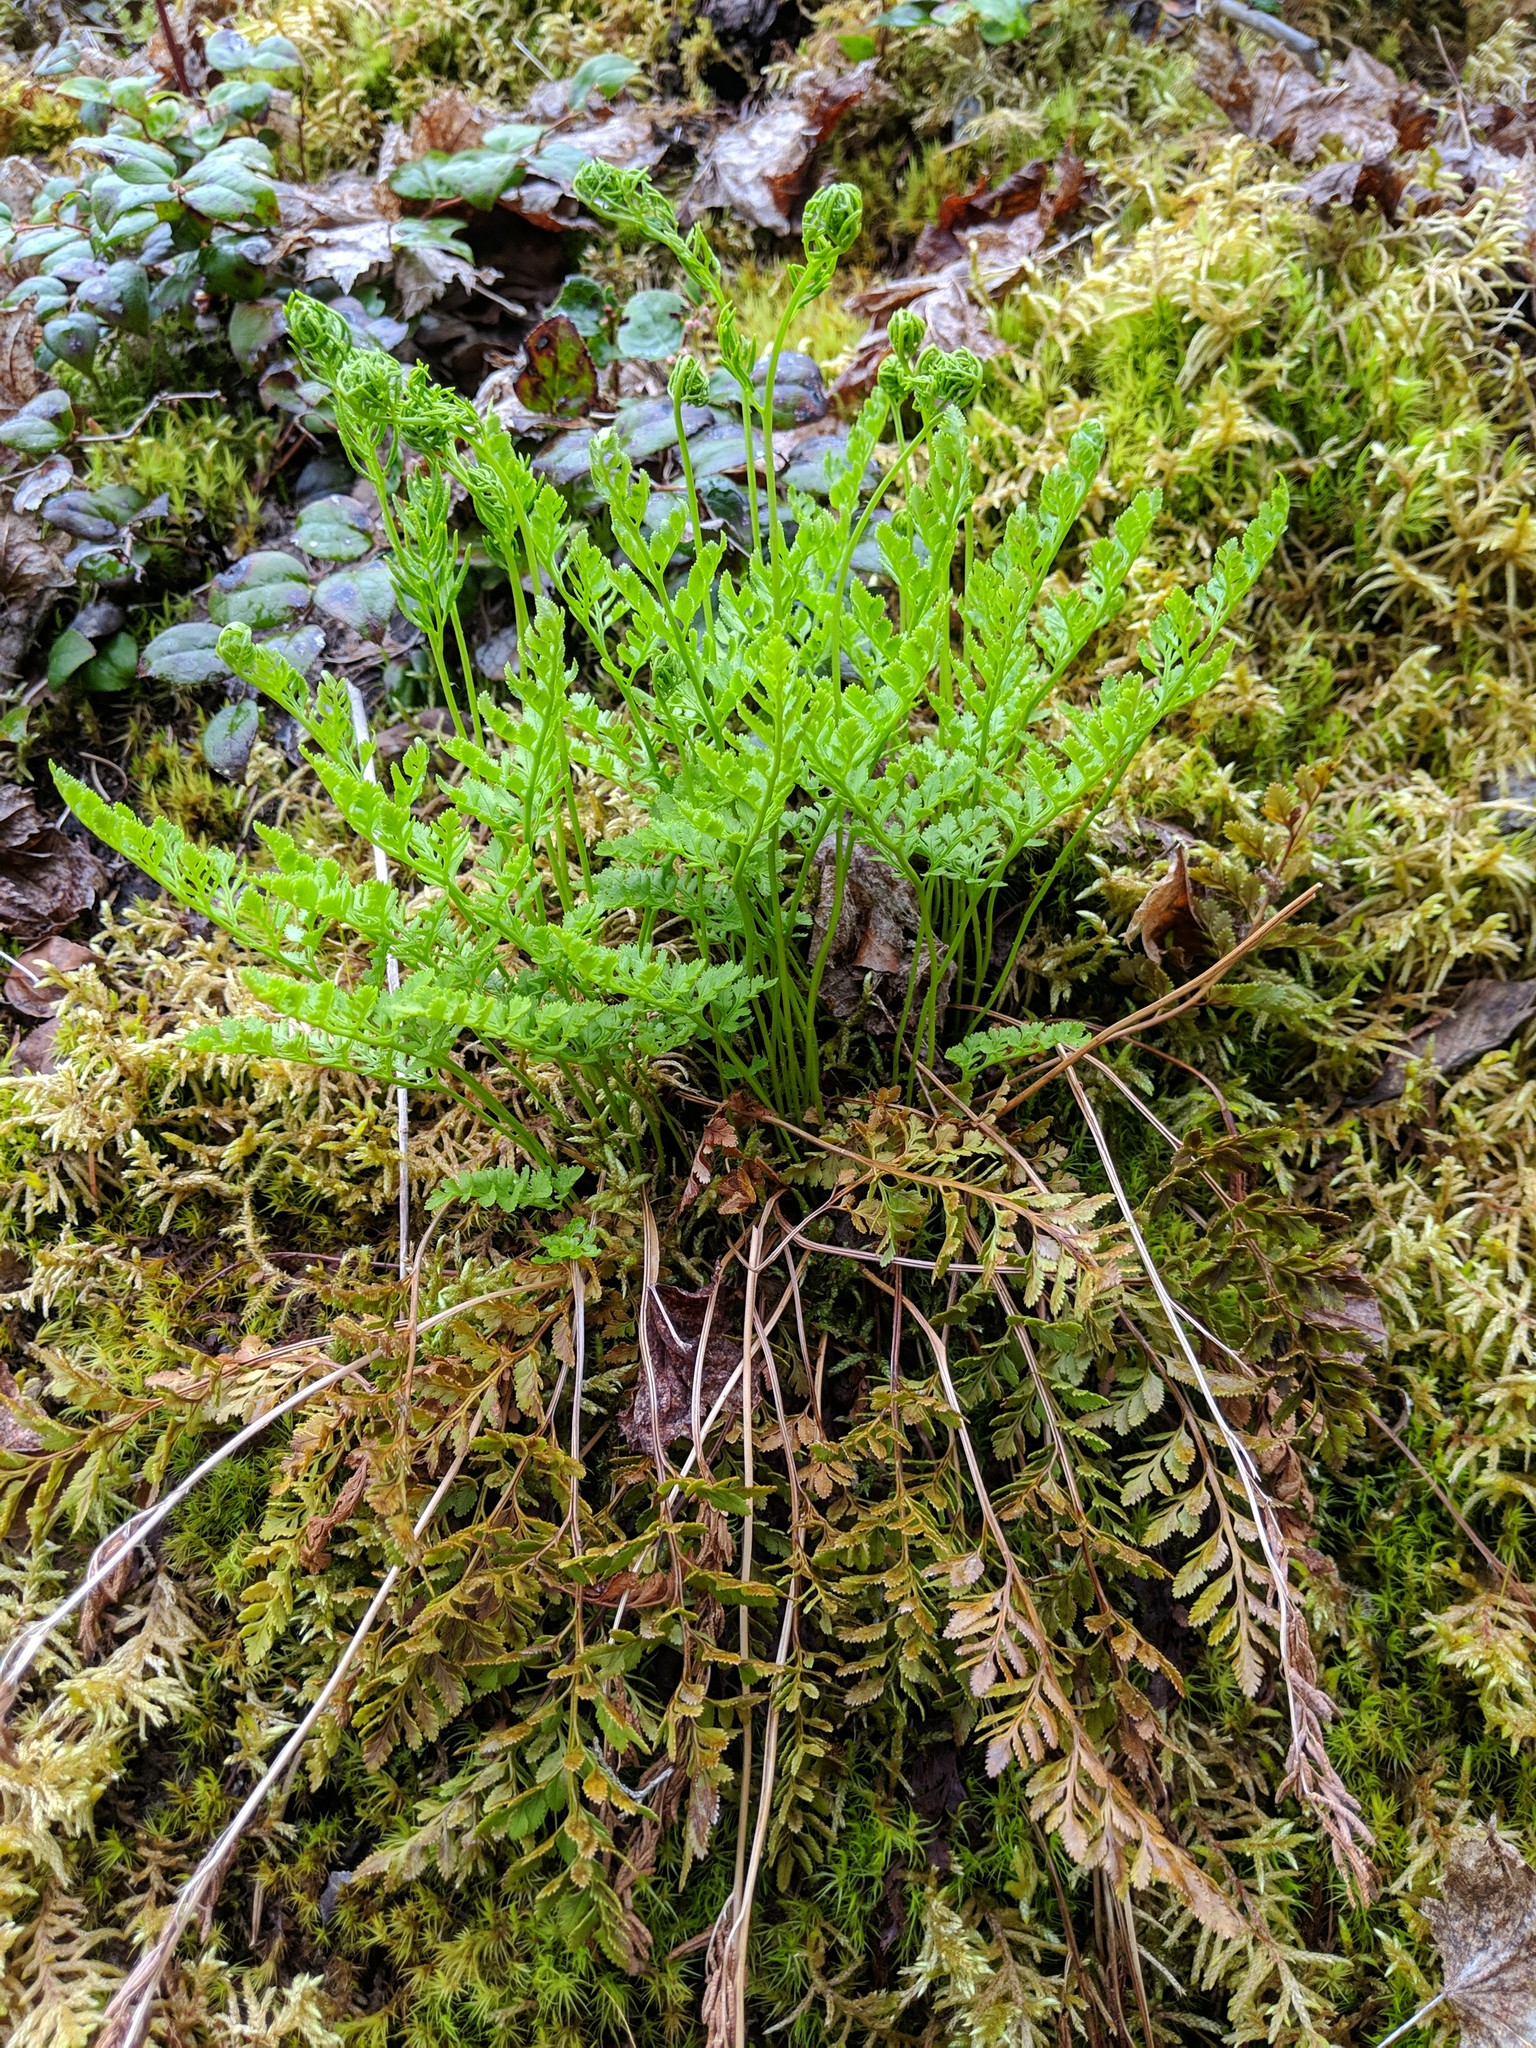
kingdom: Plantae
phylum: Tracheophyta
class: Polypodiopsida
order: Polypodiales
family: Pteridaceae
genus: Cryptogramma
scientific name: Cryptogramma acrostichoides
